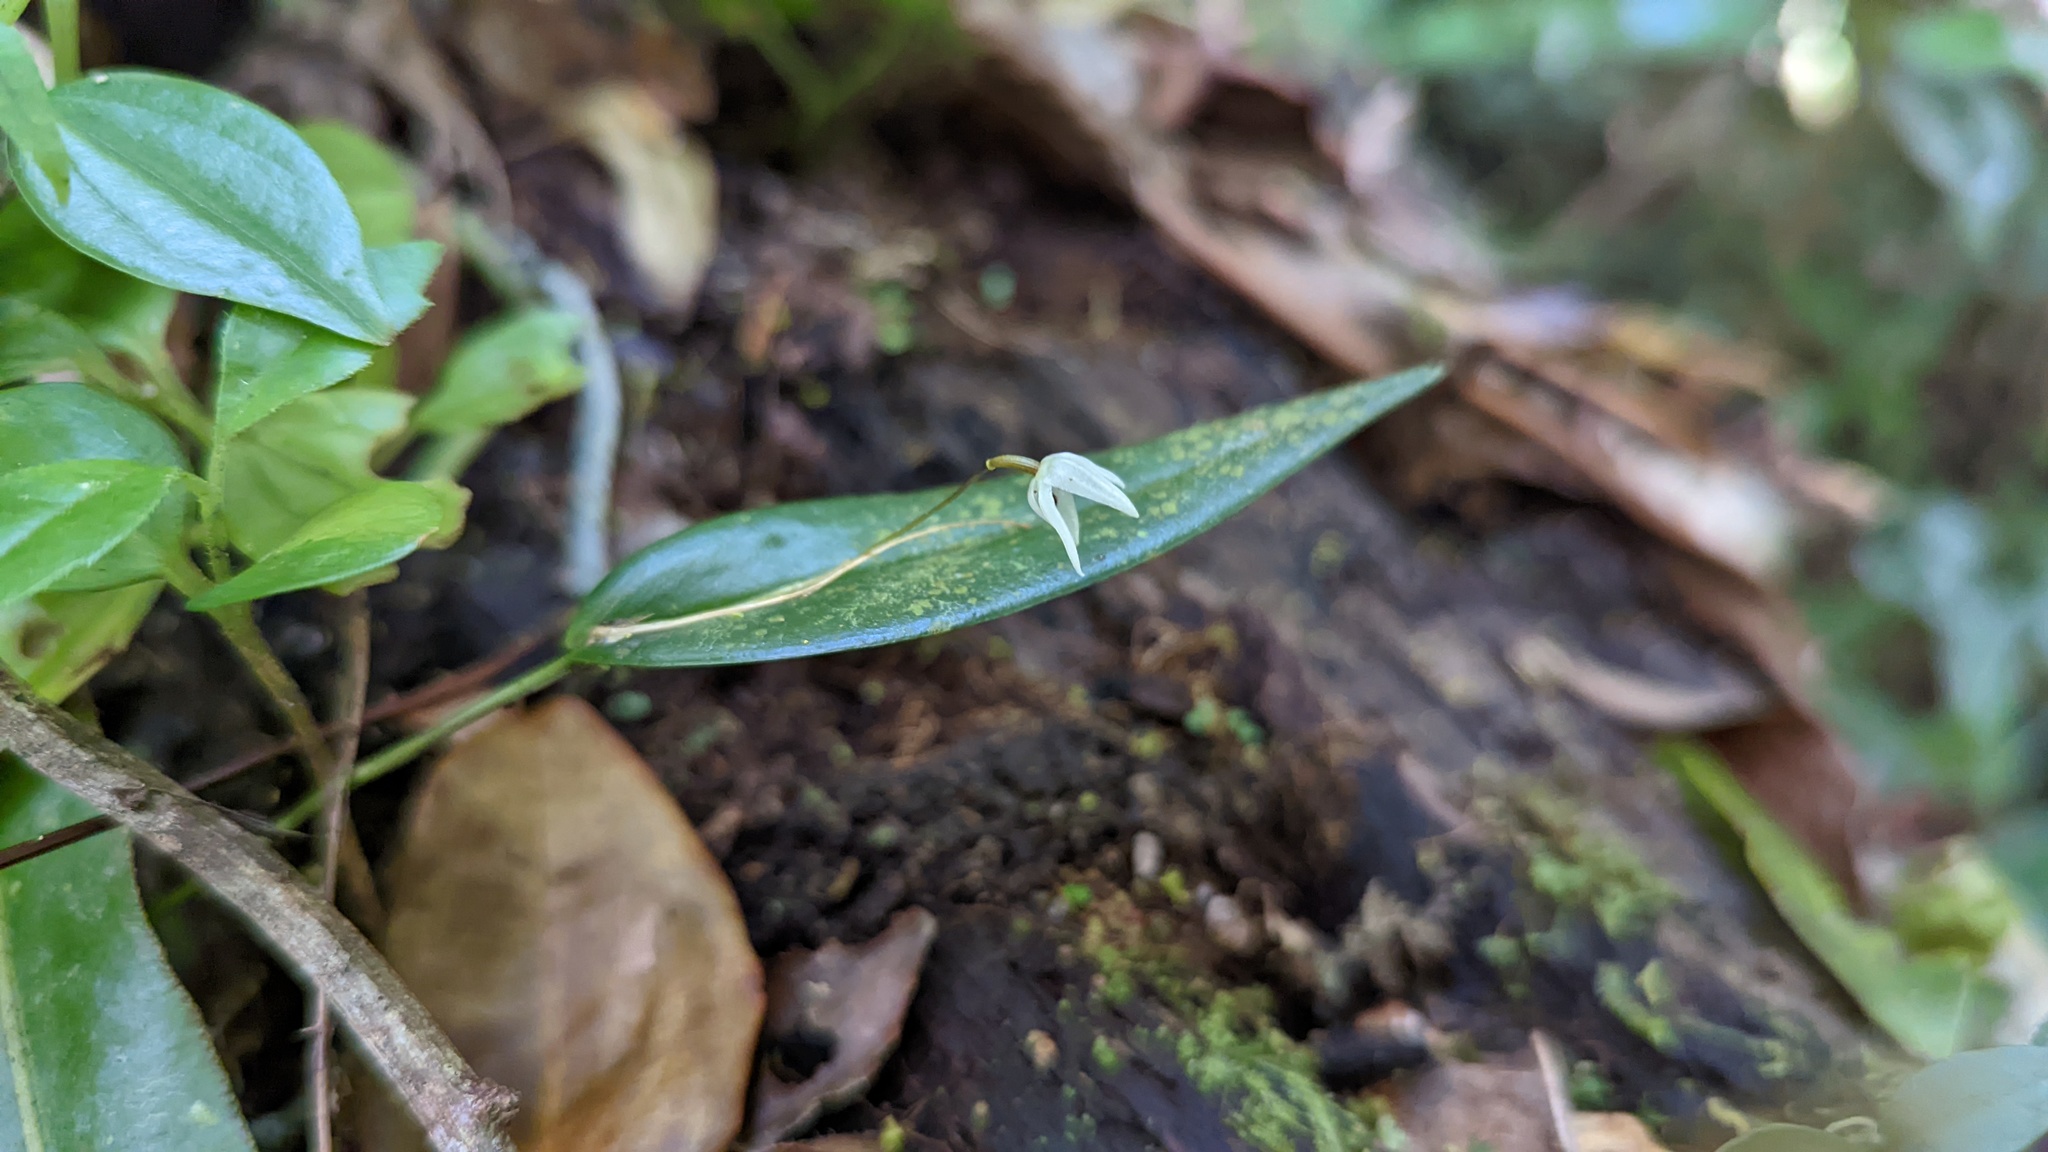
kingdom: Plantae
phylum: Tracheophyta
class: Liliopsida
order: Asparagales
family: Orchidaceae
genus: Pleurothallis
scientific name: Pleurothallis eumecocaulon
